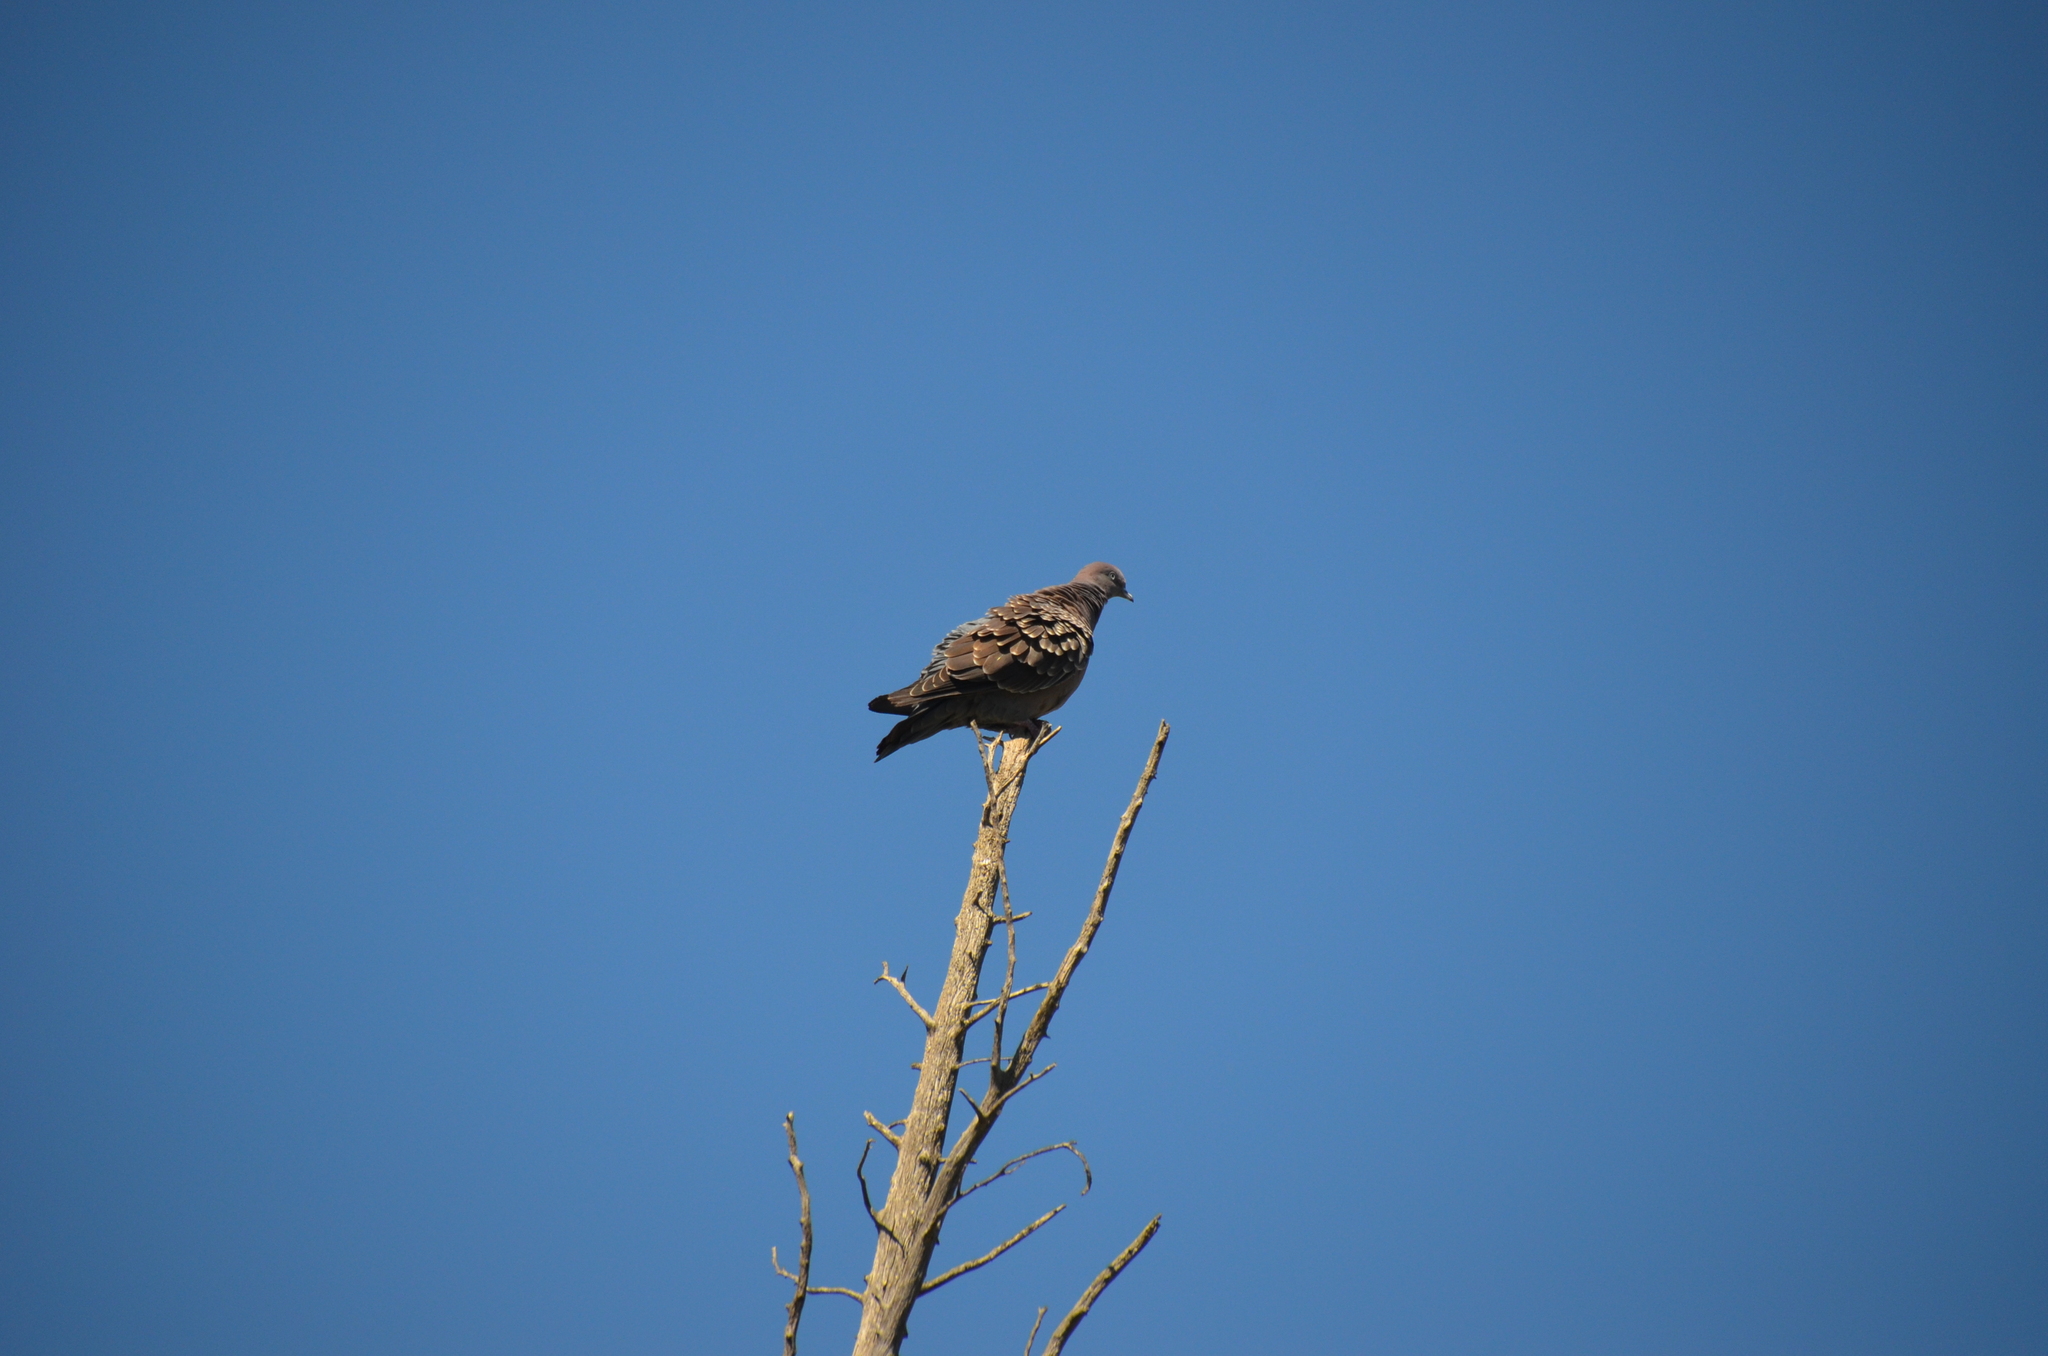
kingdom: Animalia
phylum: Chordata
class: Aves
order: Columbiformes
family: Columbidae
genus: Patagioenas
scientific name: Patagioenas maculosa
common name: Spot-winged pigeon
